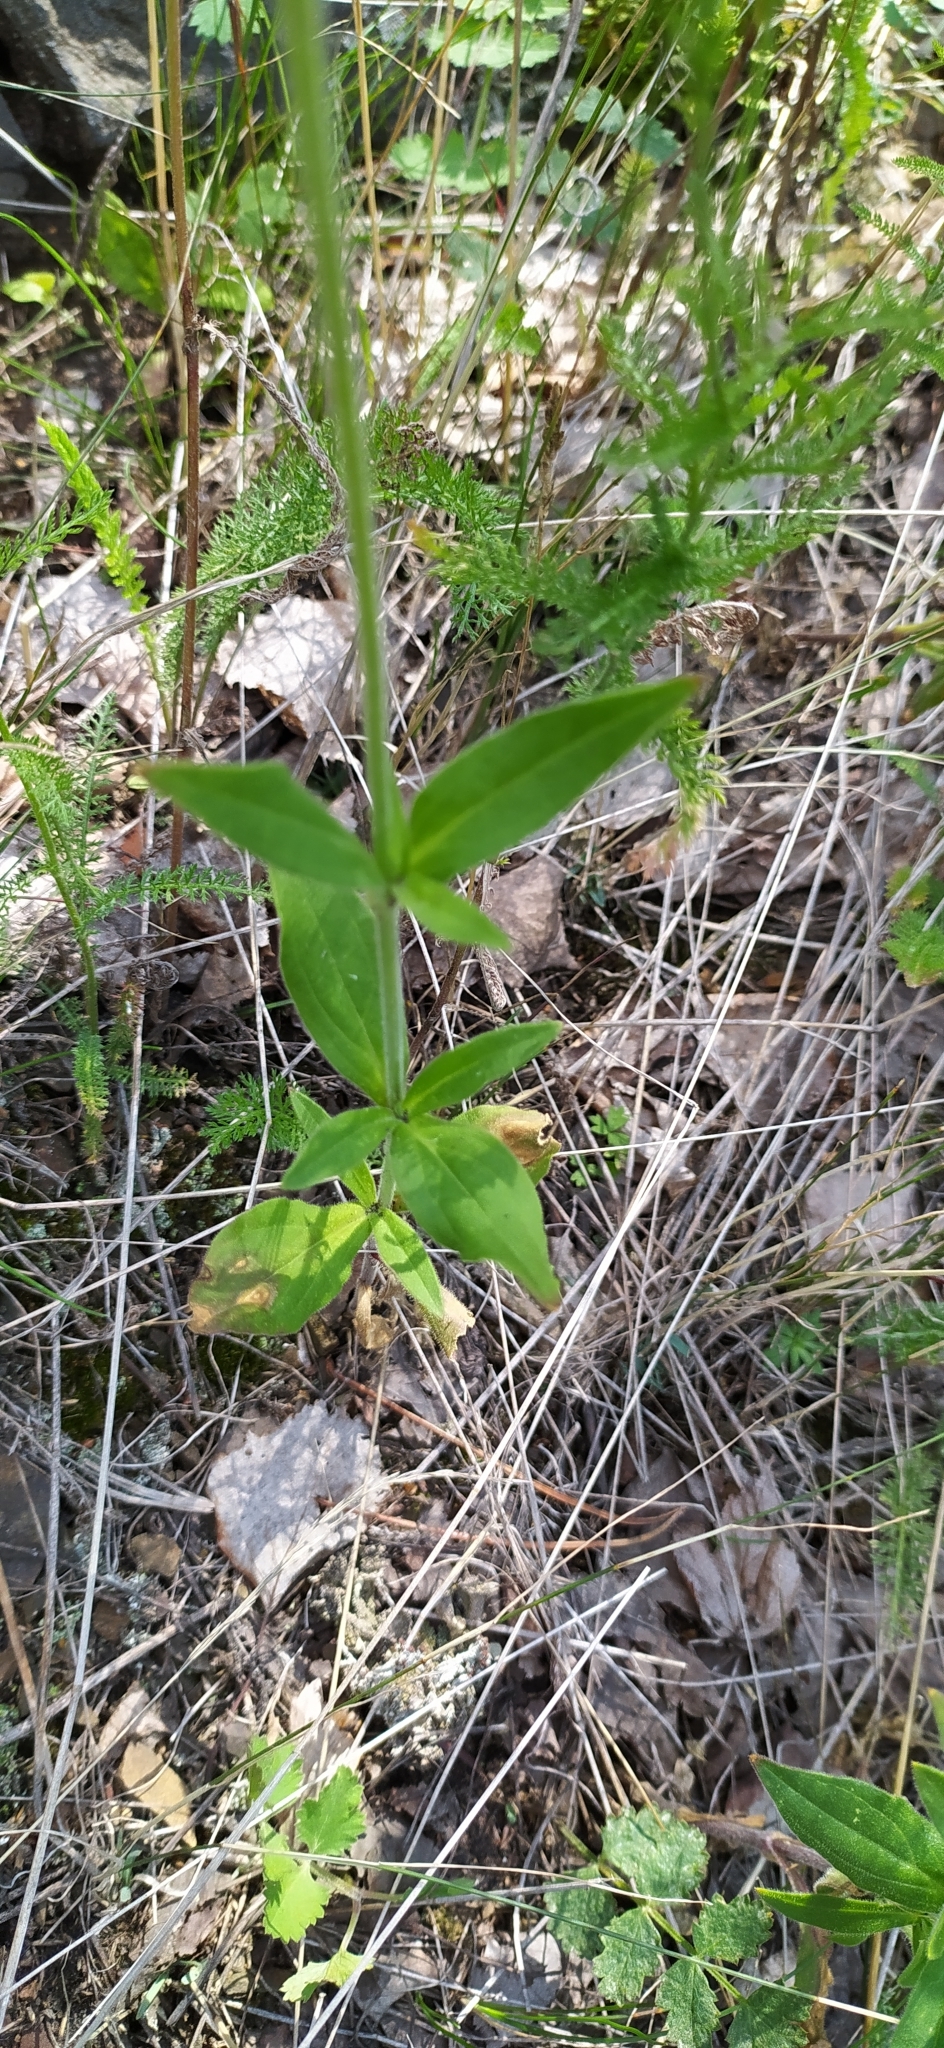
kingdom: Plantae
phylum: Tracheophyta
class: Magnoliopsida
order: Caryophyllales
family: Caryophyllaceae
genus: Silene
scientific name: Silene latifolia
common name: White campion
